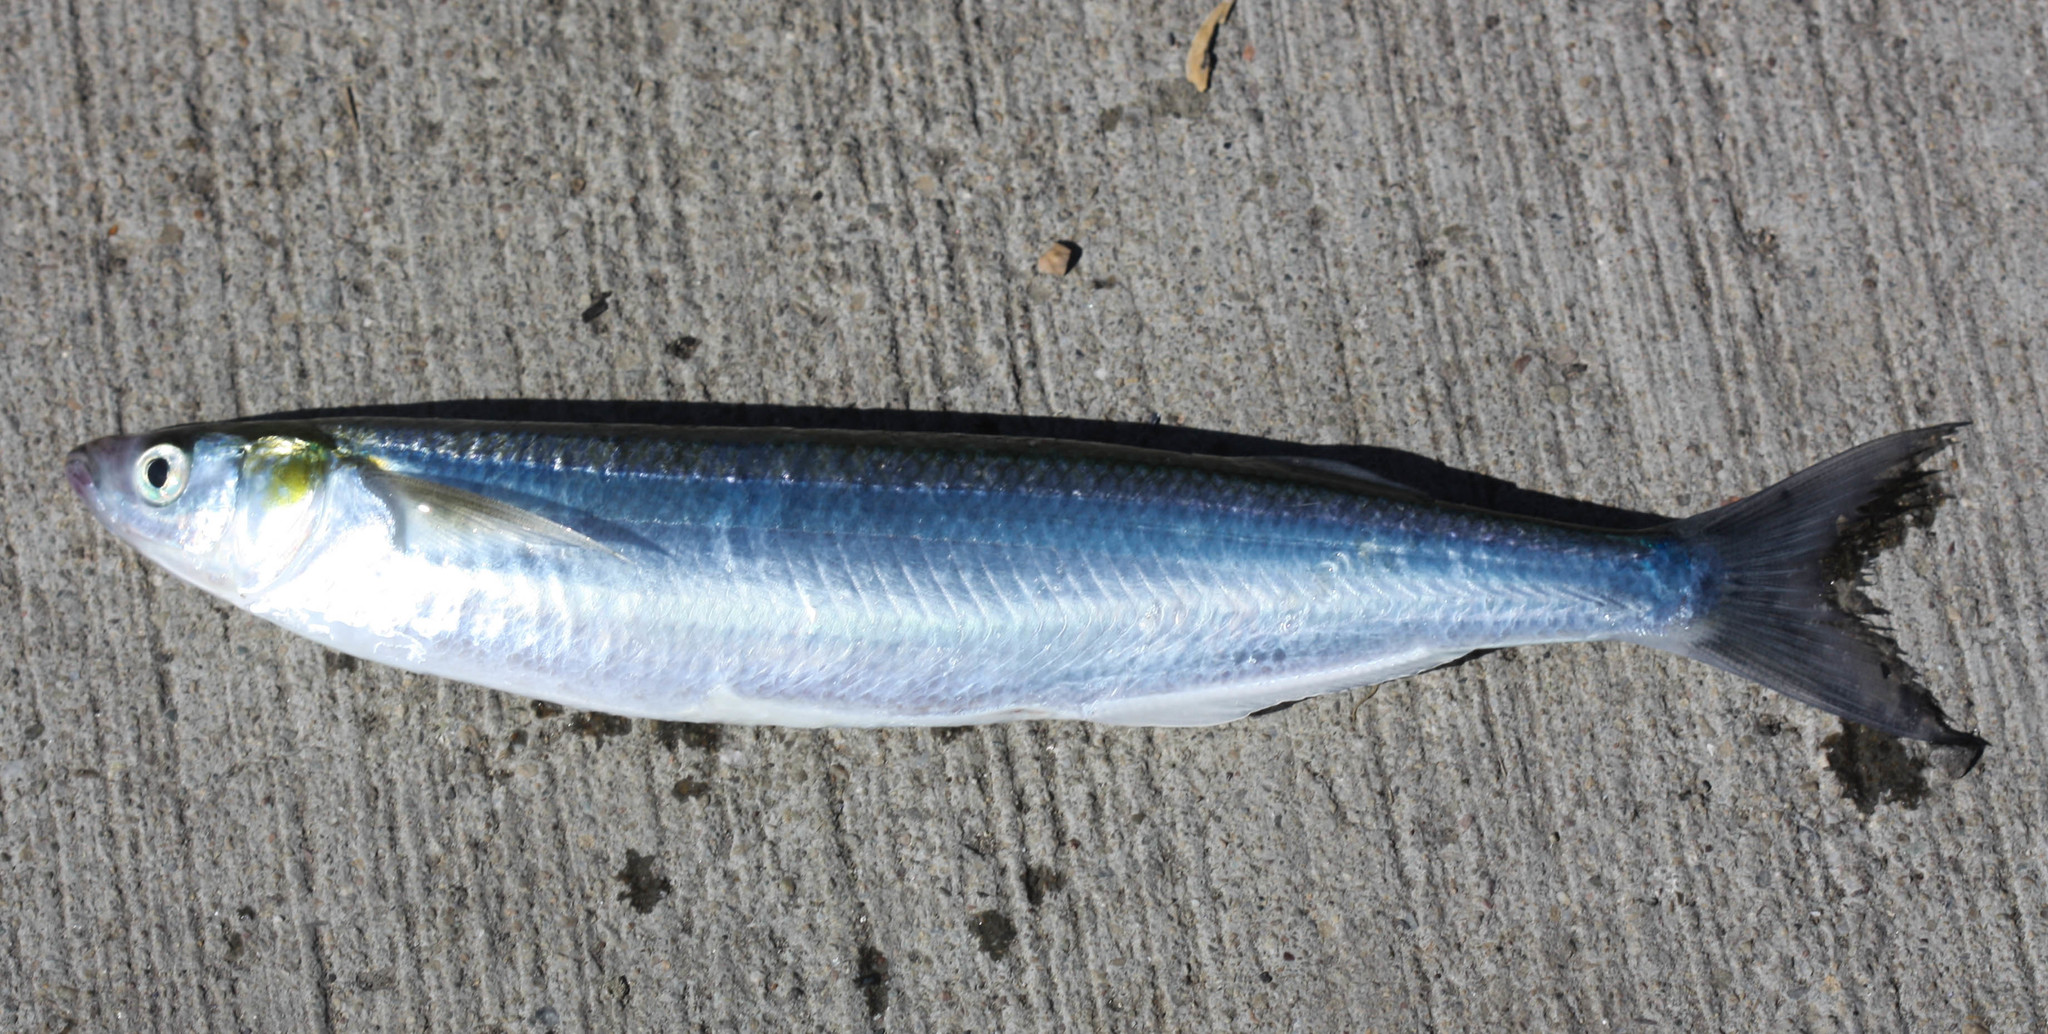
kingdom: Animalia
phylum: Chordata
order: Atheriniformes
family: Atherinopsidae
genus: Atherinopsis
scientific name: Atherinopsis californiensis
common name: Jack silverside
